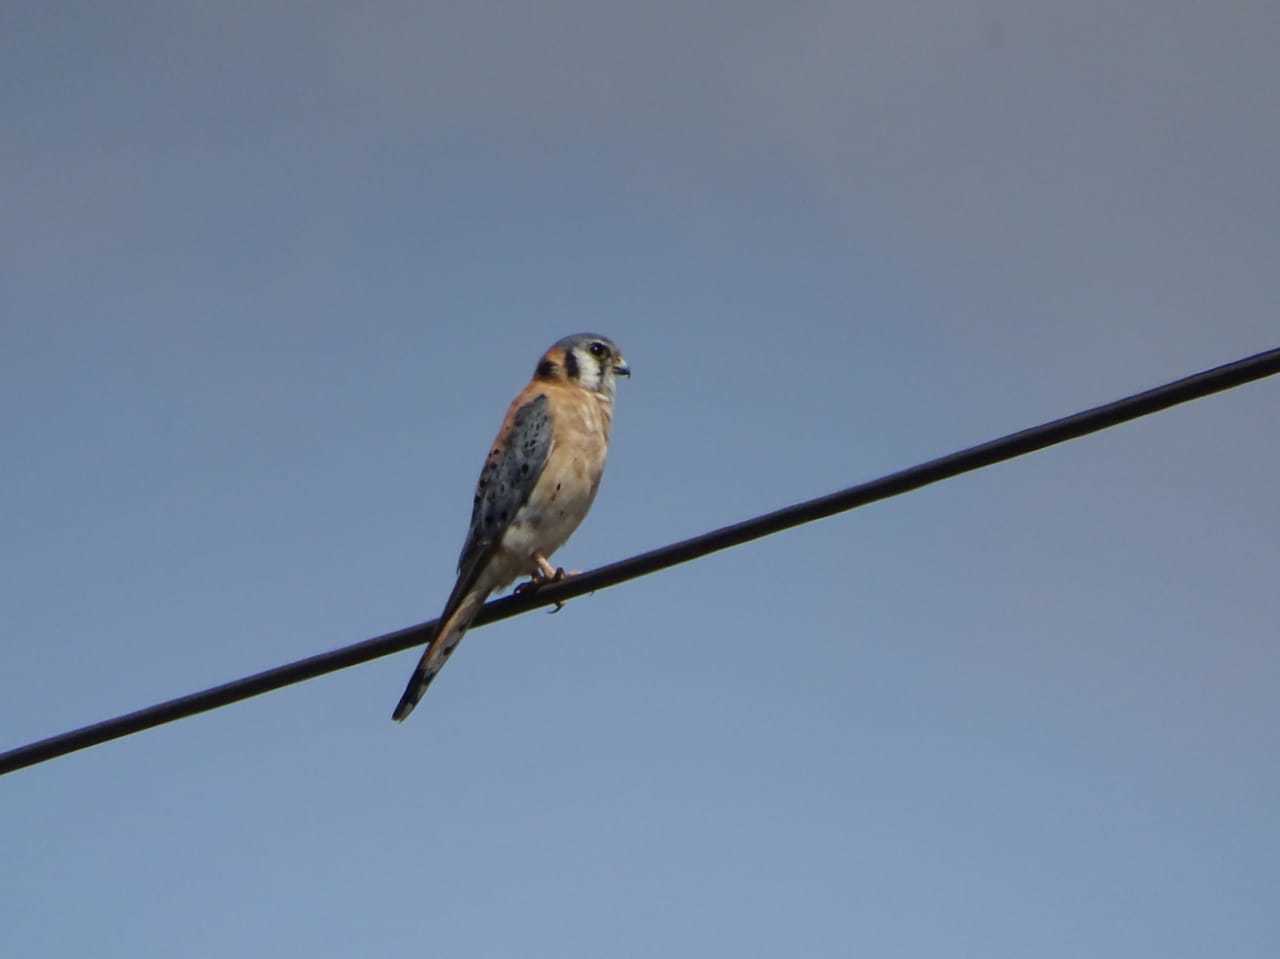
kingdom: Animalia
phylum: Chordata
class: Aves
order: Falconiformes
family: Falconidae
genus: Falco
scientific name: Falco sparverius
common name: American kestrel
